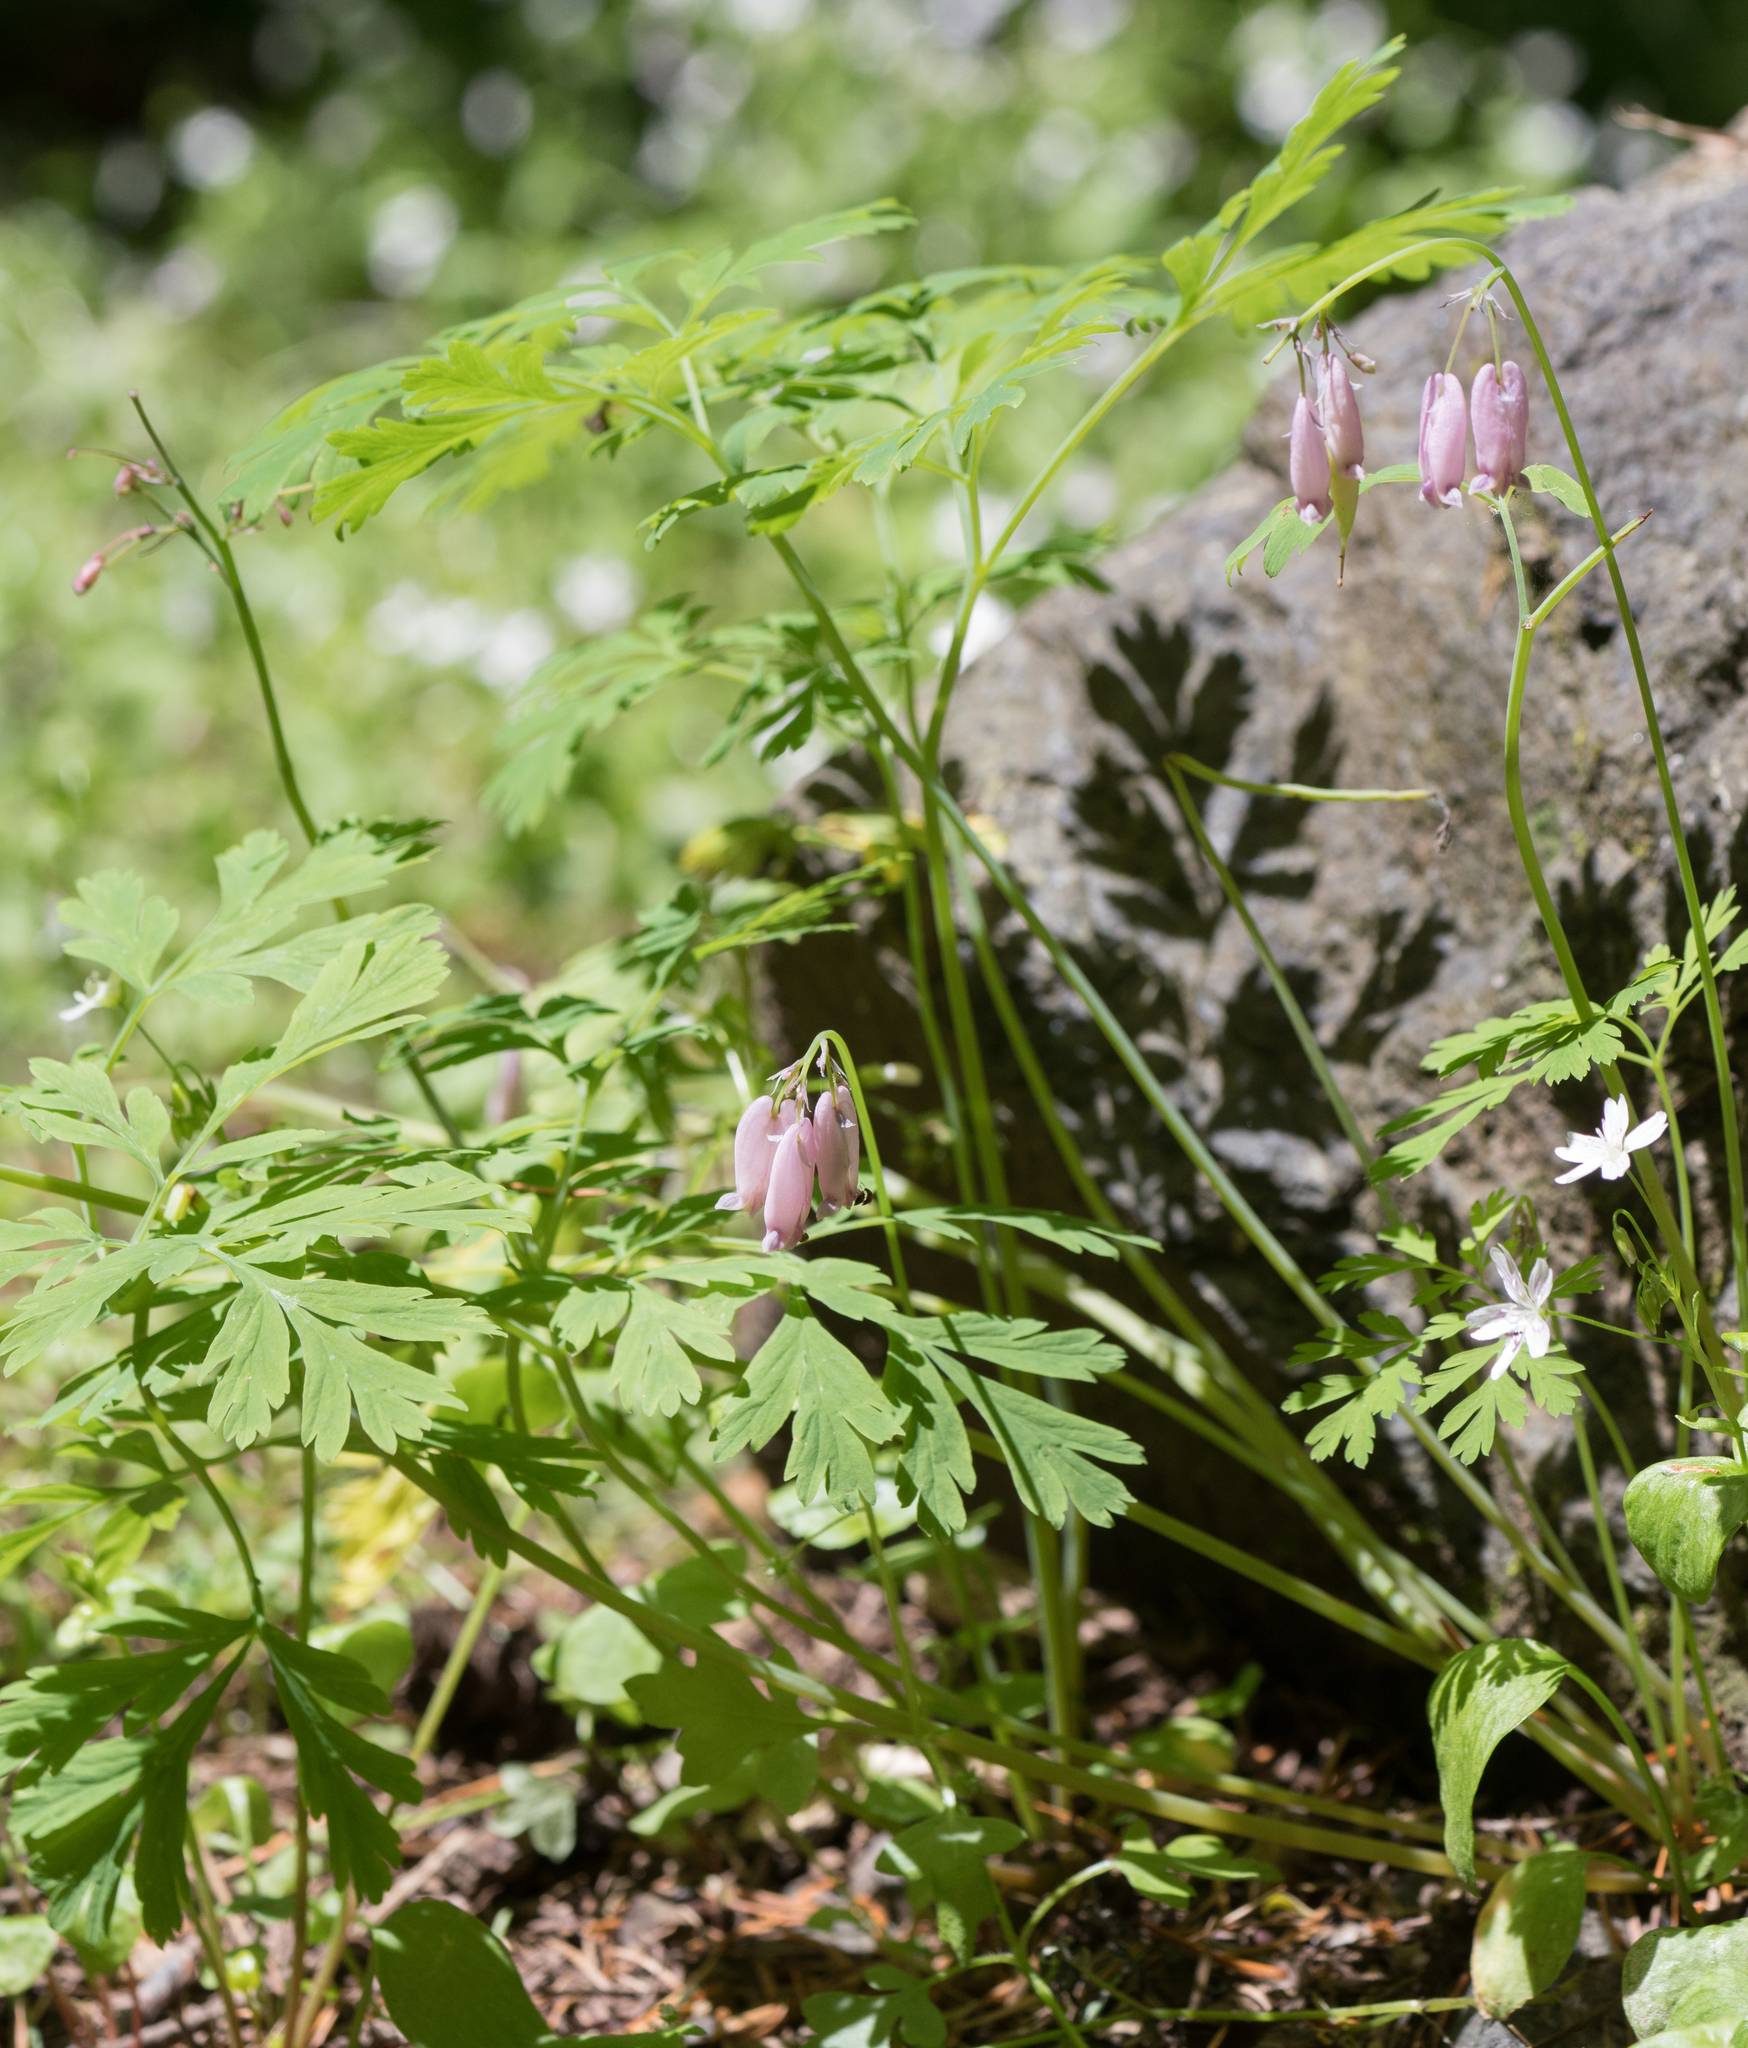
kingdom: Plantae
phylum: Tracheophyta
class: Magnoliopsida
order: Ranunculales
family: Papaveraceae
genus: Dicentra
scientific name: Dicentra formosa
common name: Bleeding-heart
